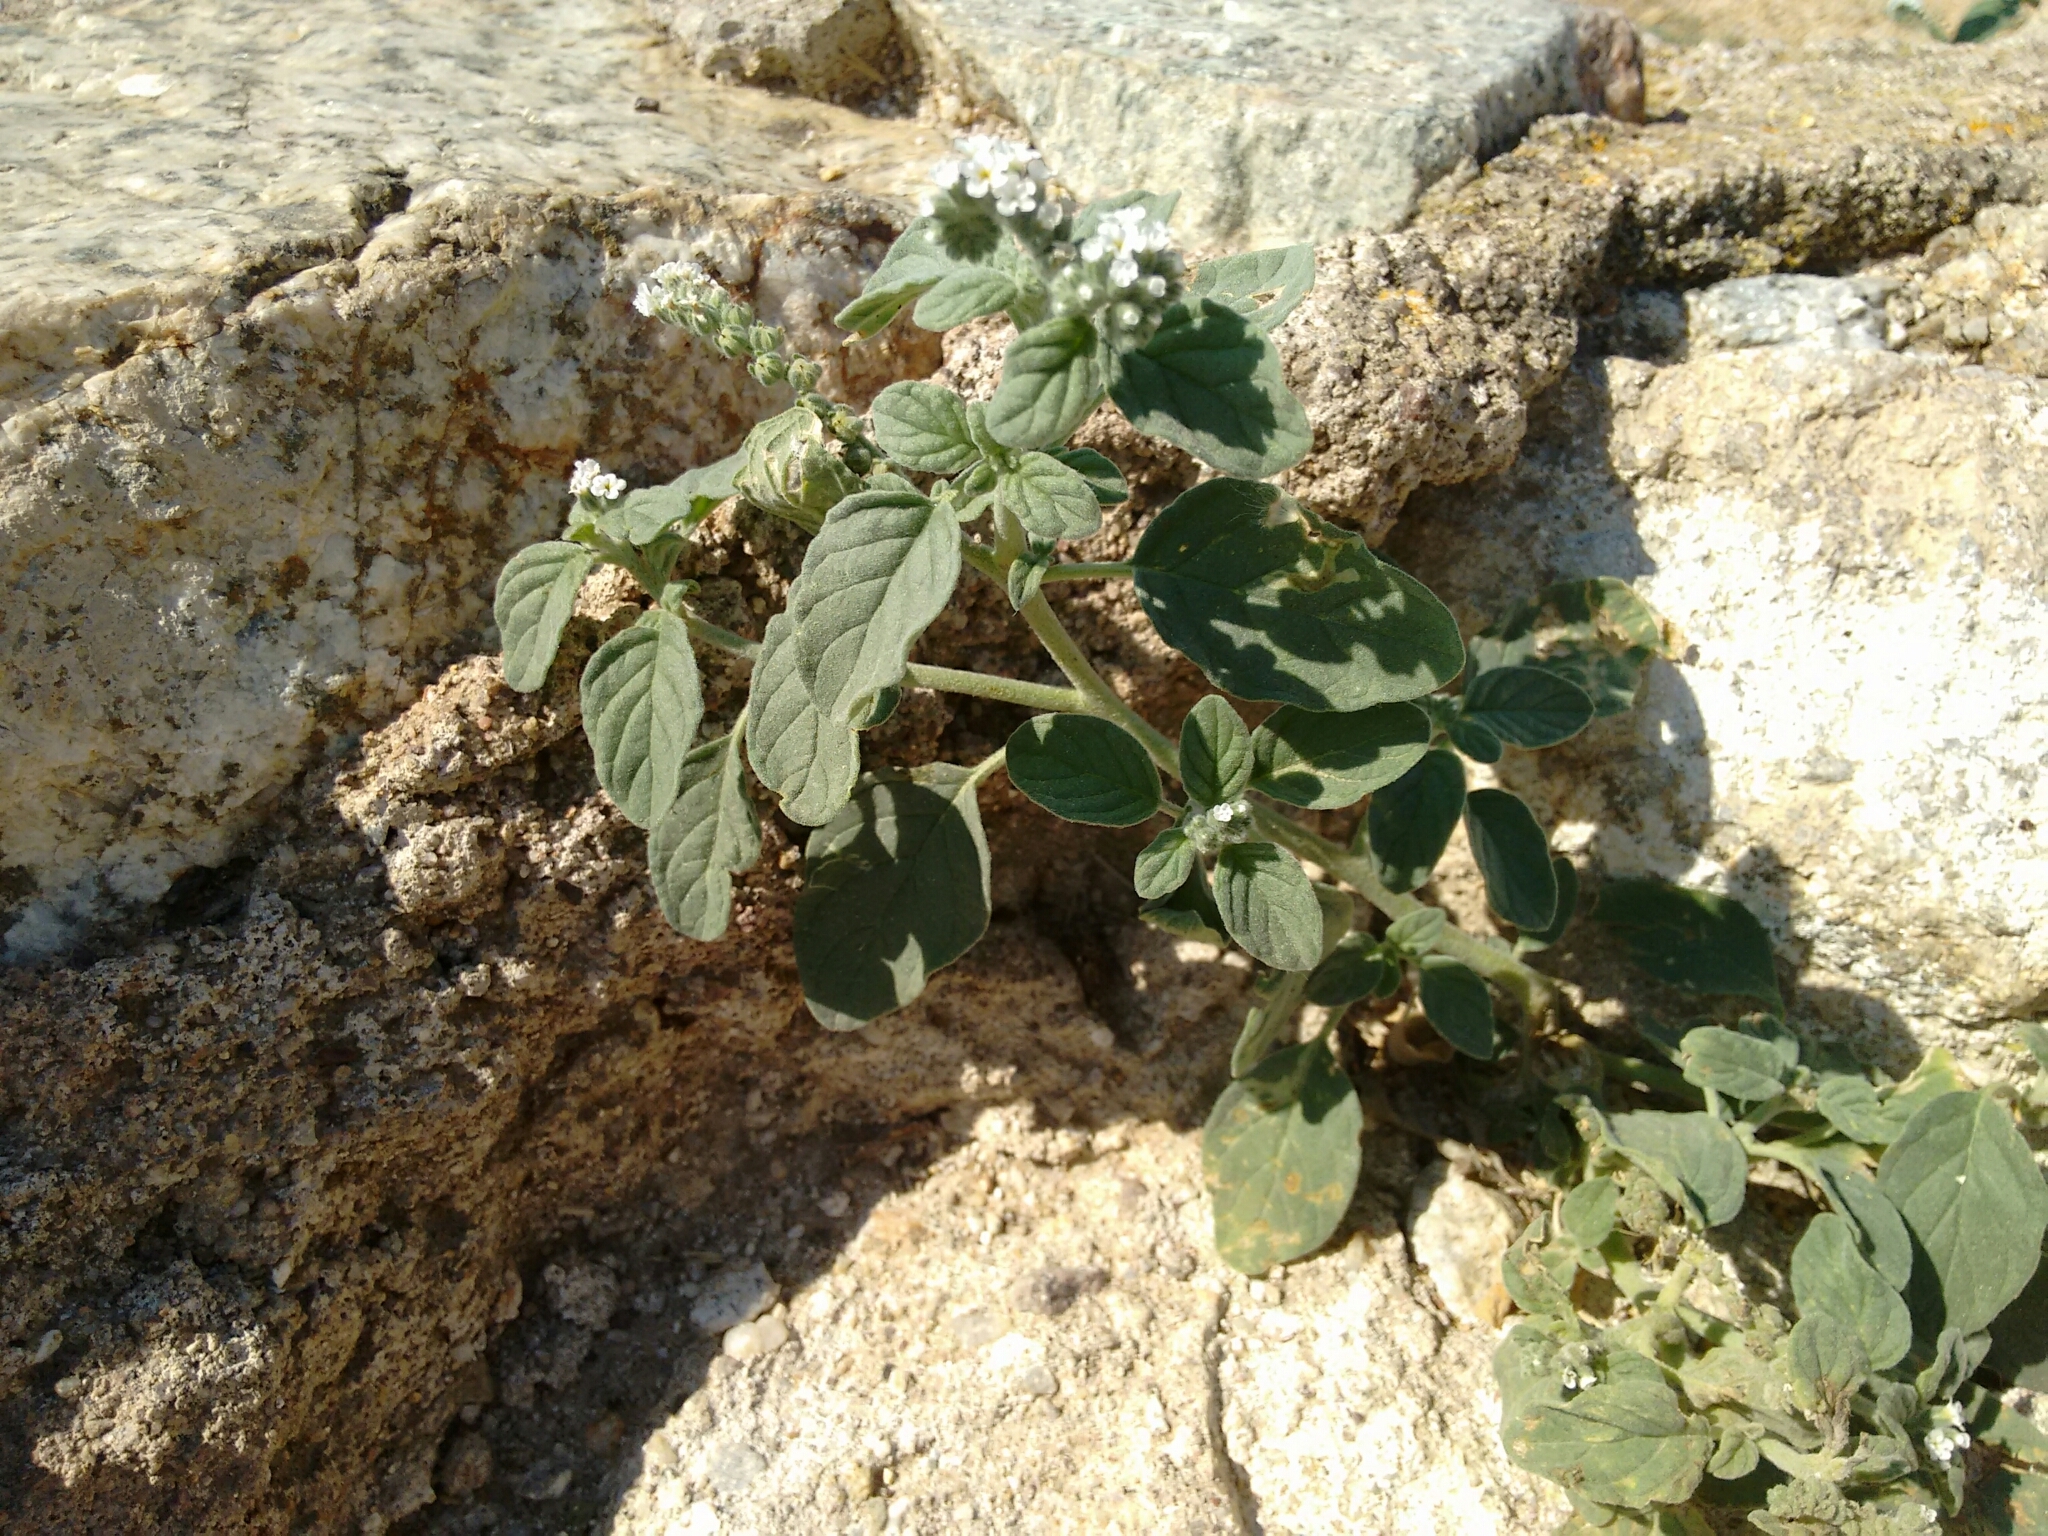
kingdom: Plantae
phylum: Tracheophyta
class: Magnoliopsida
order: Boraginales
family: Heliotropiaceae
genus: Heliotropium
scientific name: Heliotropium europaeum
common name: European heliotrope
